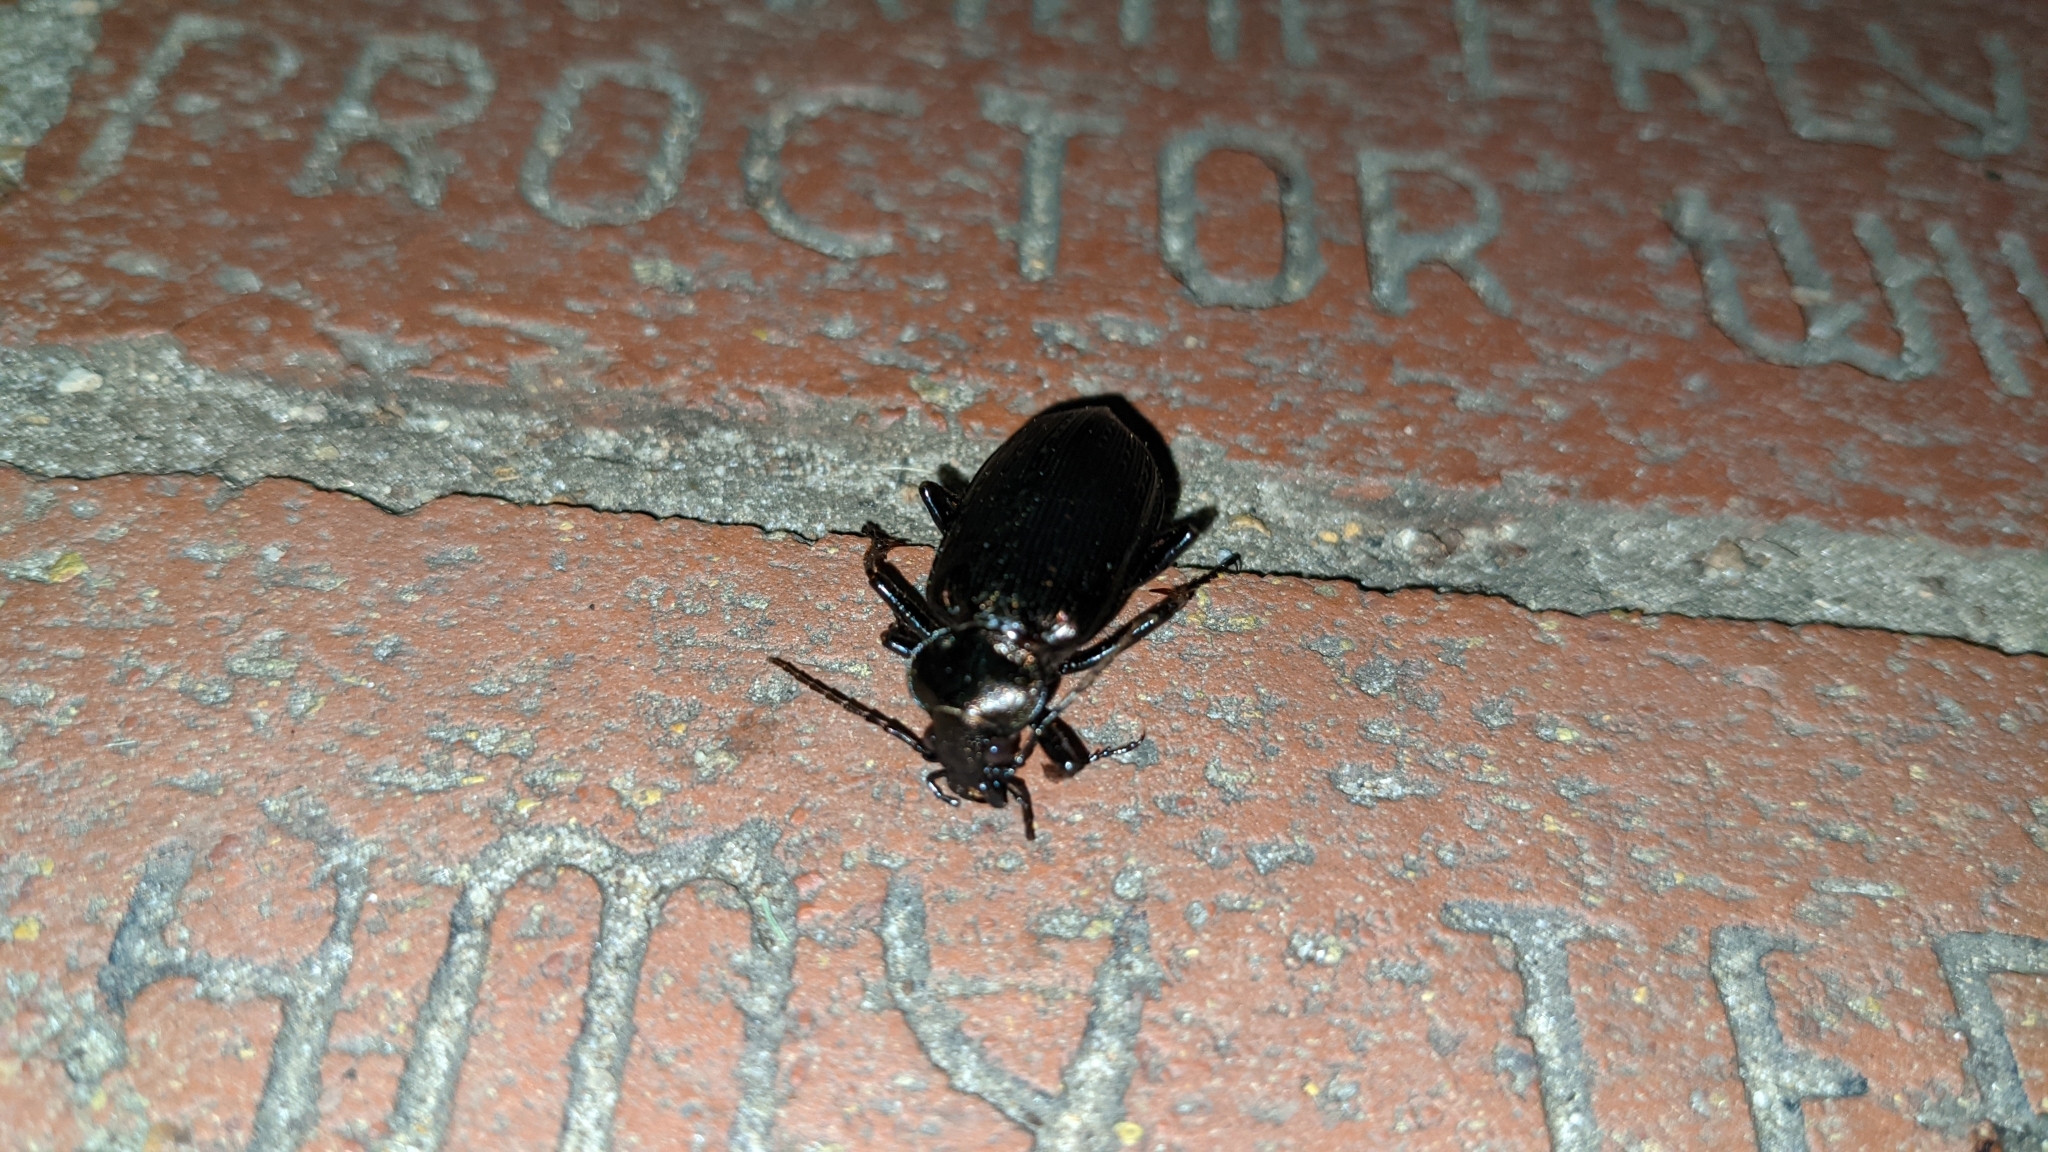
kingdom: Animalia
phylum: Arthropoda
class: Insecta
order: Coleoptera
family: Carabidae
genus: Calosoma
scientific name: Calosoma sayi
